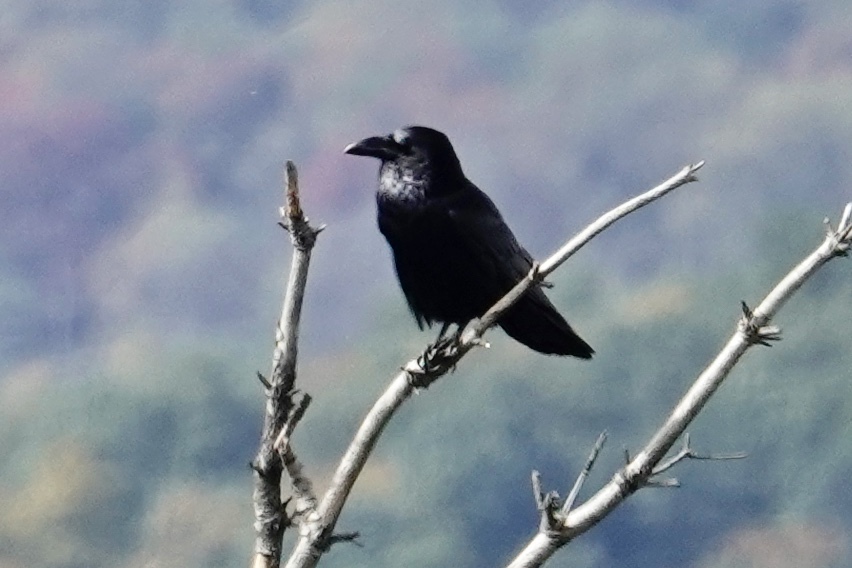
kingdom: Animalia
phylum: Chordata
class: Aves
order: Passeriformes
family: Corvidae
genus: Corvus
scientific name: Corvus corax
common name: Common raven
